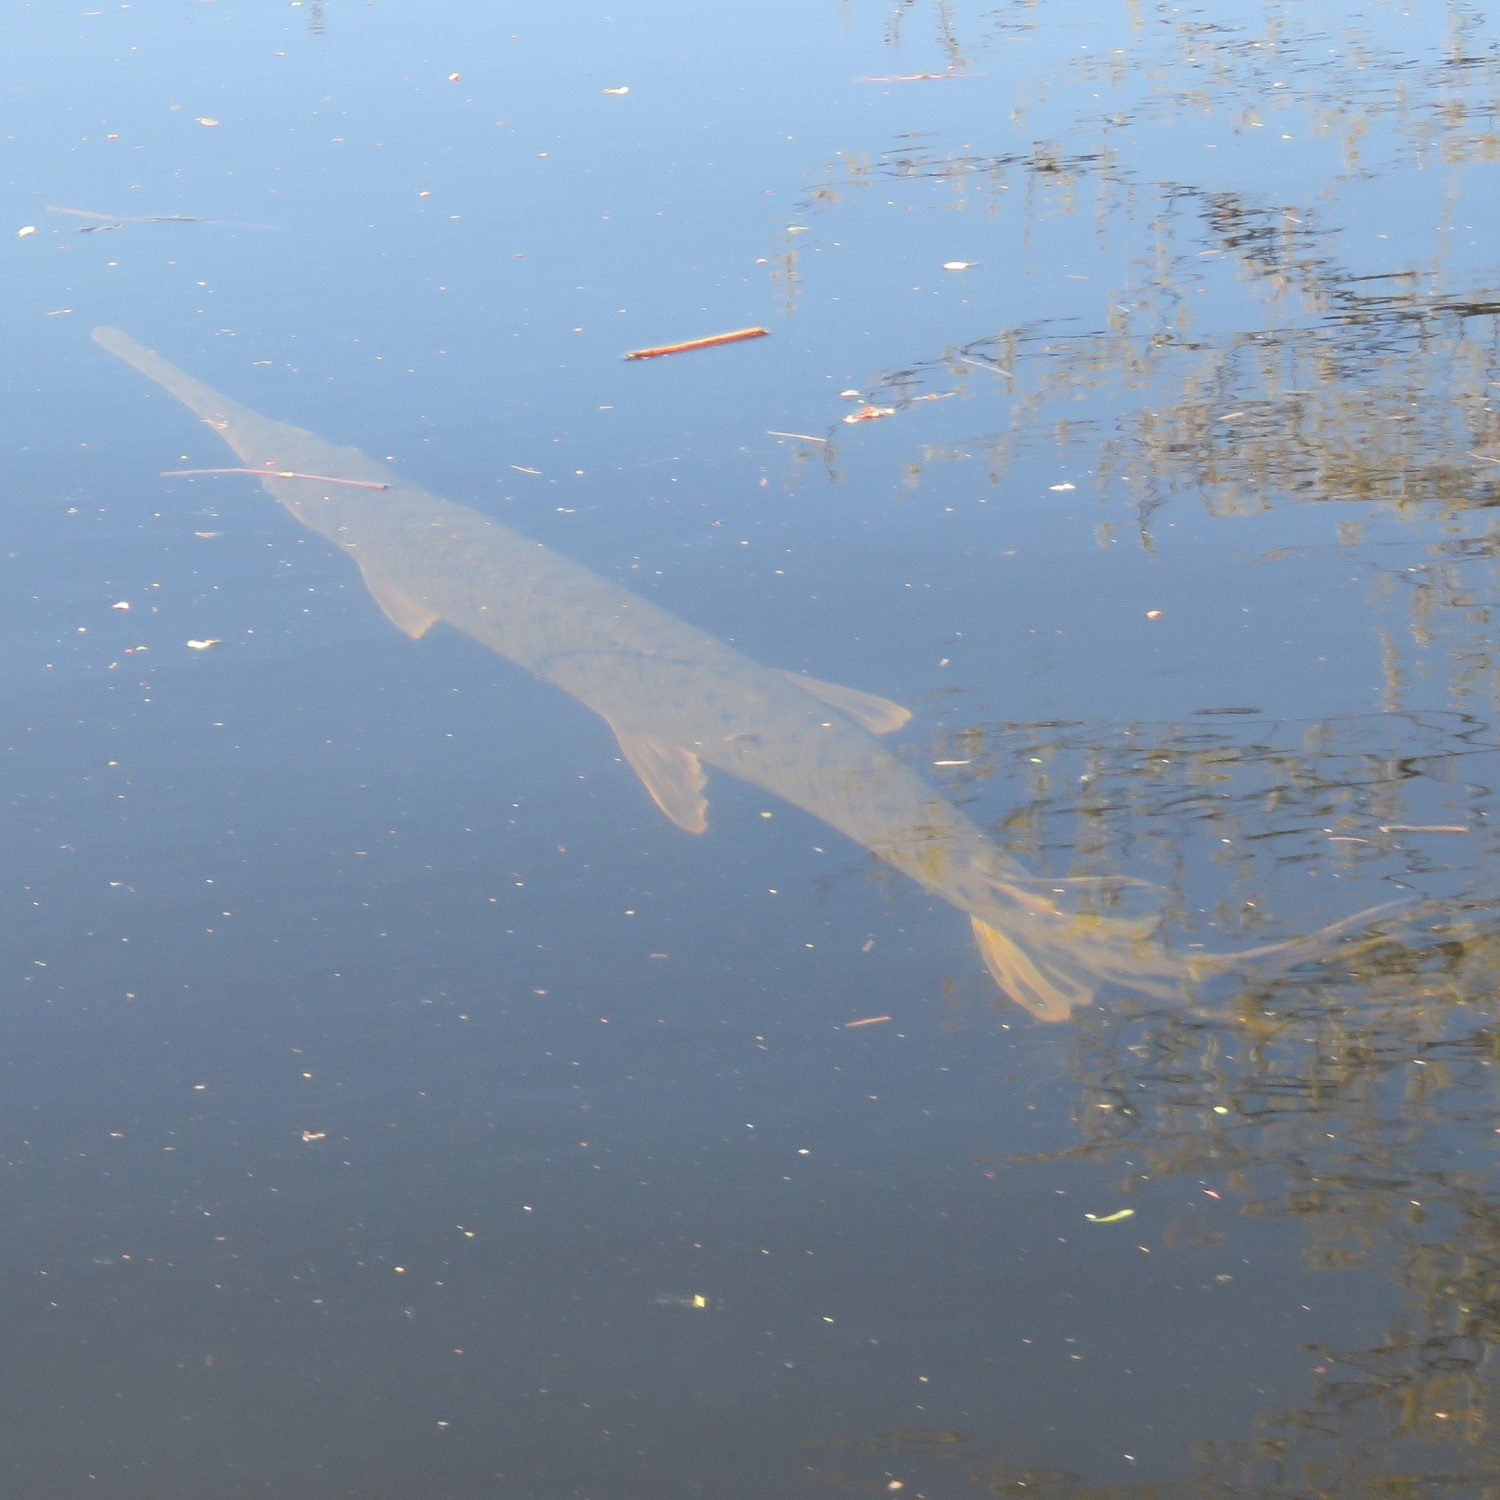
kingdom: Animalia
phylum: Chordata
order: Lepisosteiformes
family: Lepisosteidae
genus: Lepisosteus
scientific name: Lepisosteus osseus
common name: Longnose gar
